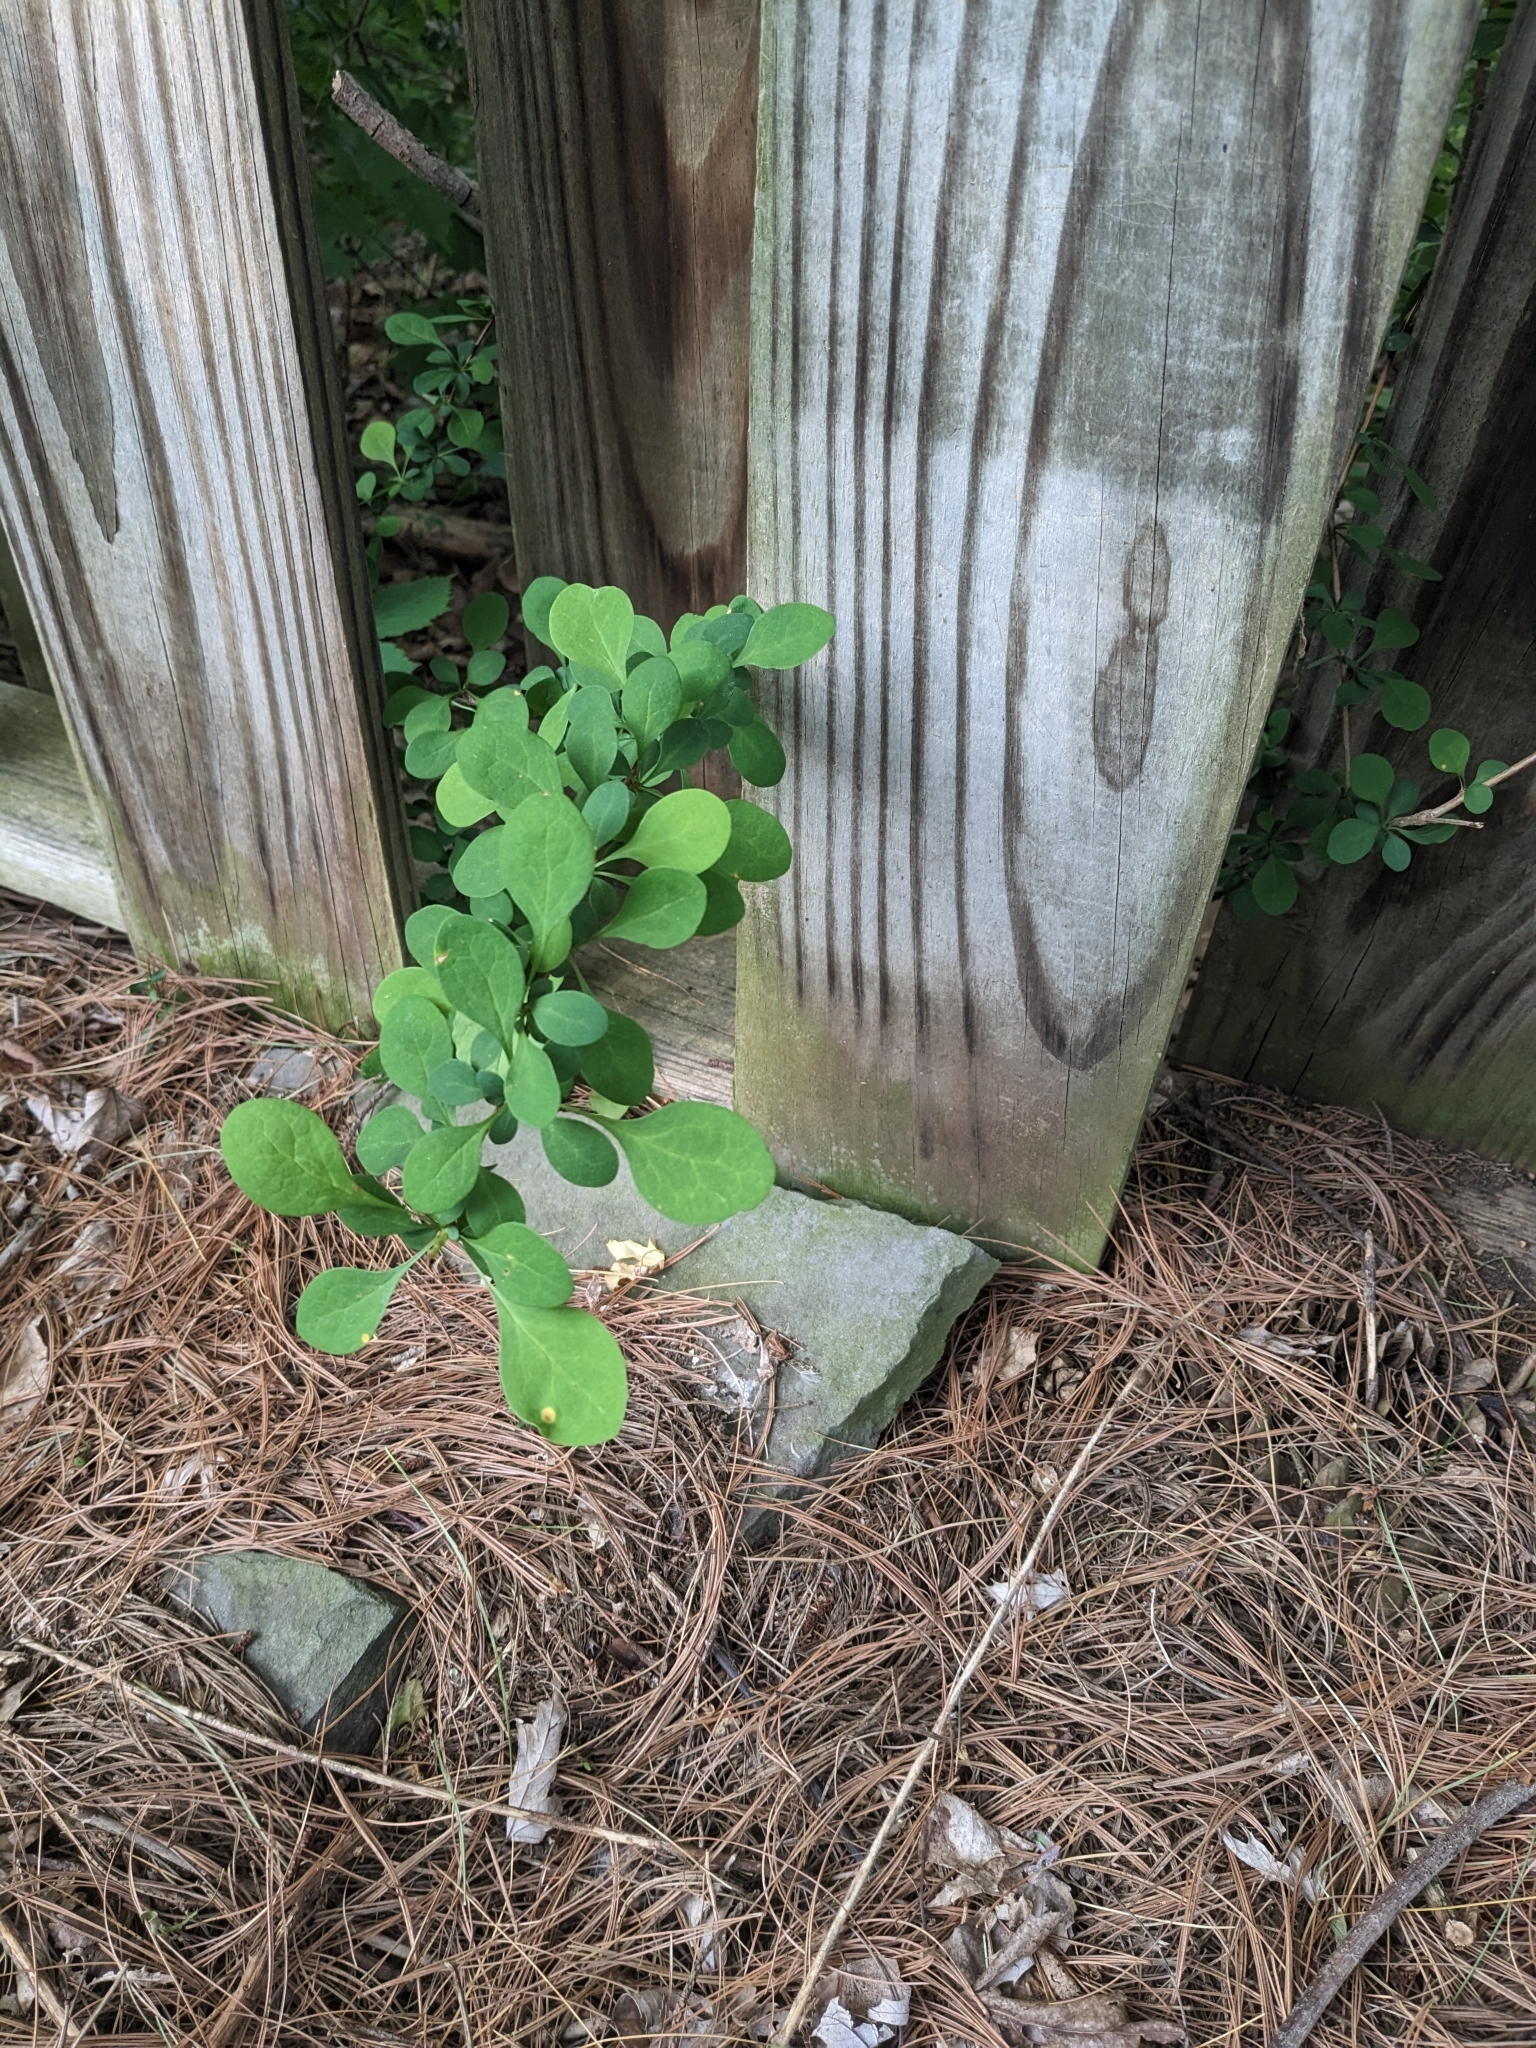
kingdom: Plantae
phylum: Tracheophyta
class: Magnoliopsida
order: Ranunculales
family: Berberidaceae
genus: Berberis
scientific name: Berberis thunbergii
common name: Japanese barberry
